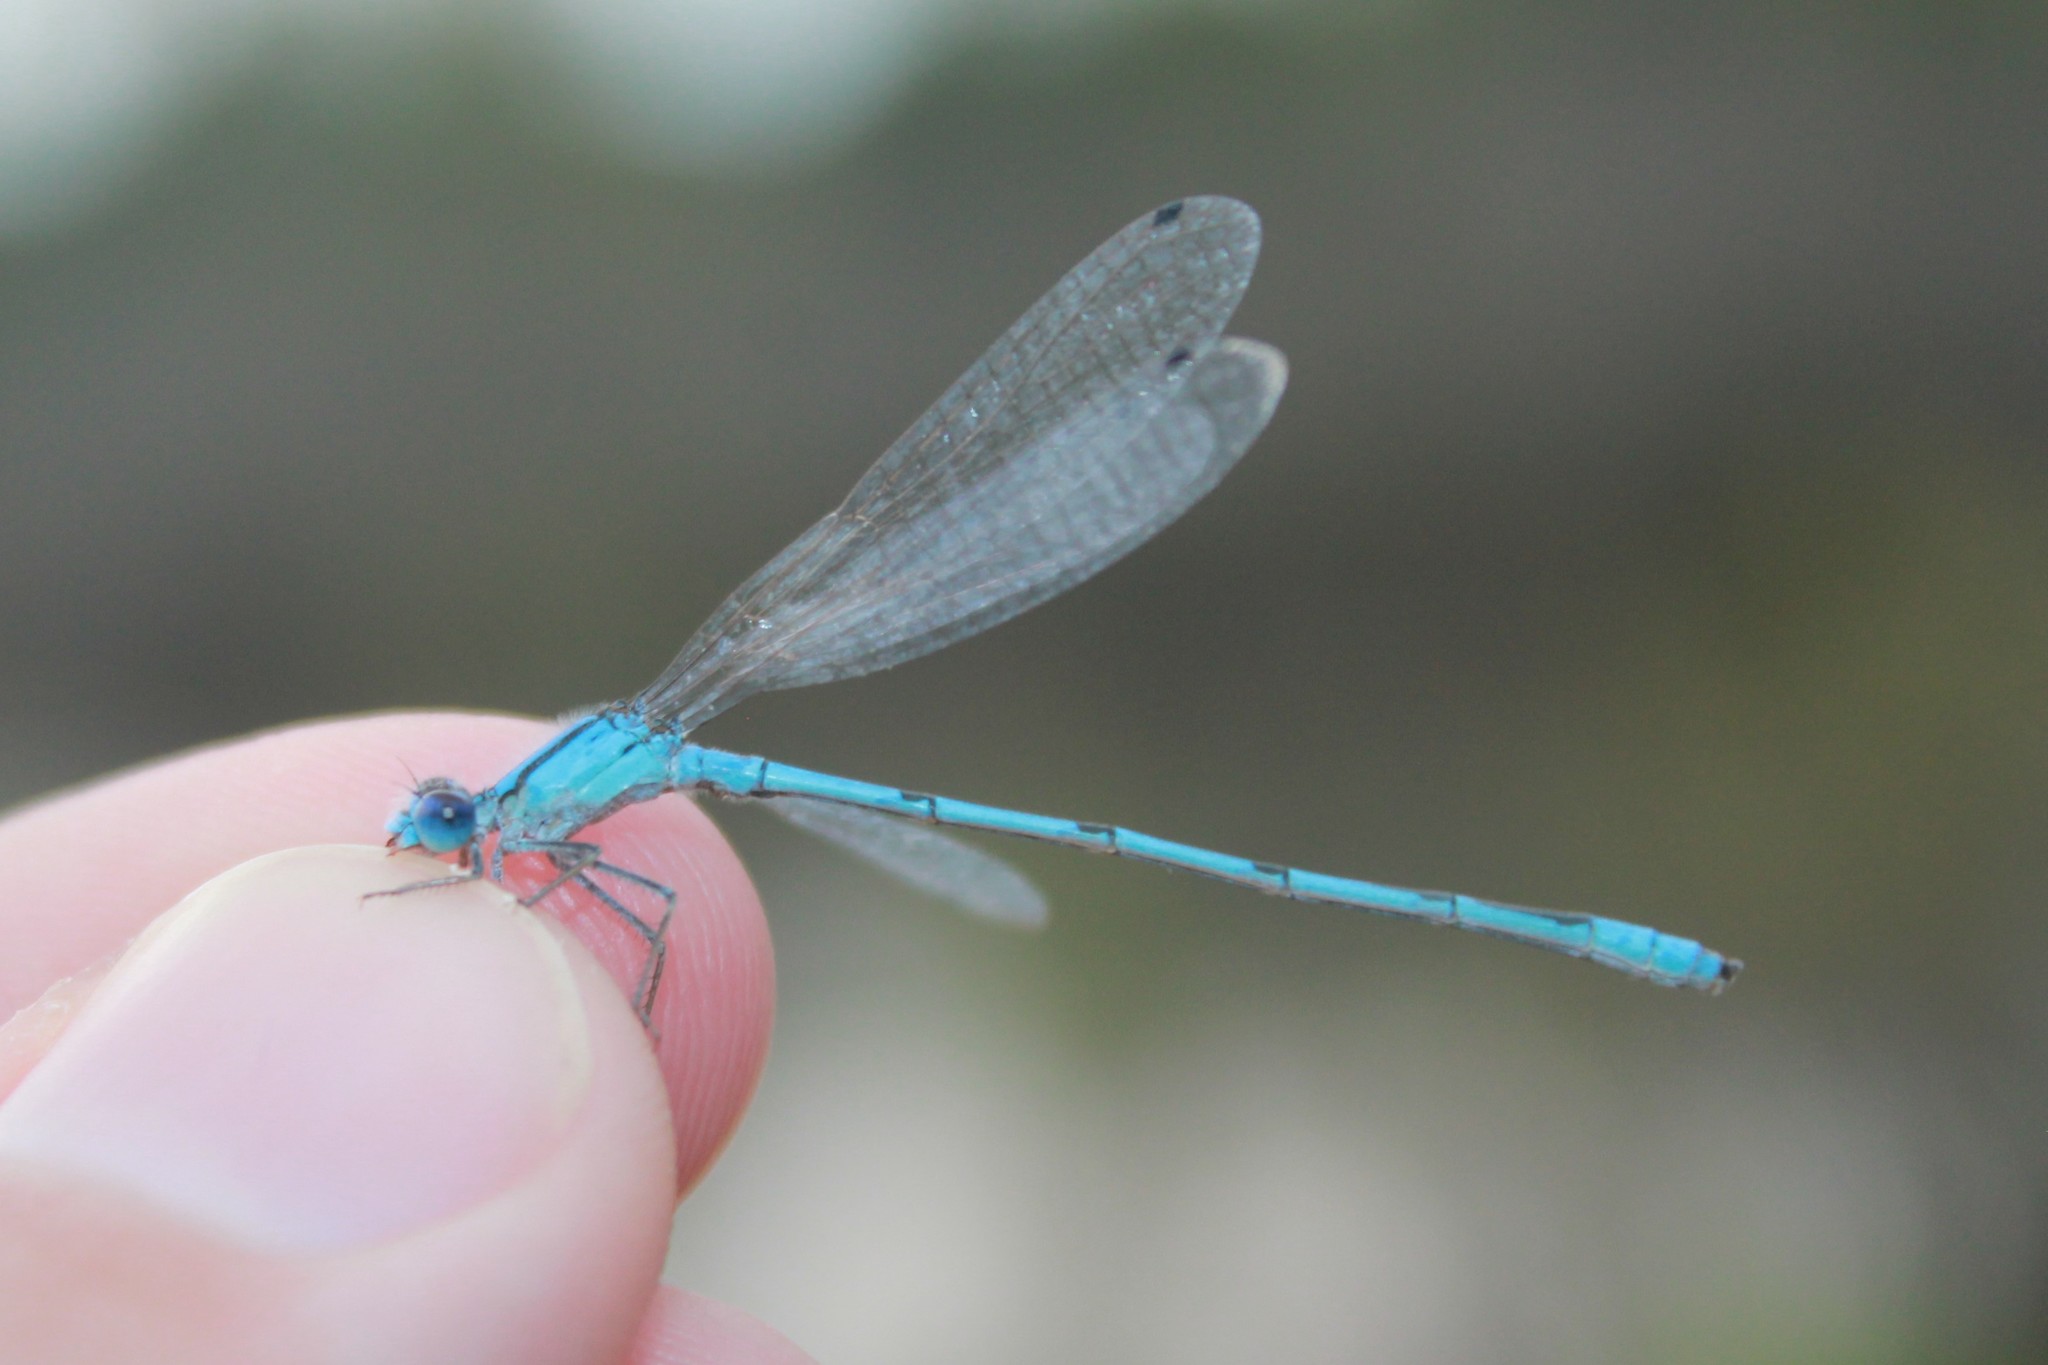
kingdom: Animalia
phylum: Arthropoda
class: Insecta
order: Odonata
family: Coenagrionidae
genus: Enallagma
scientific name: Enallagma civile
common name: Damselfly
